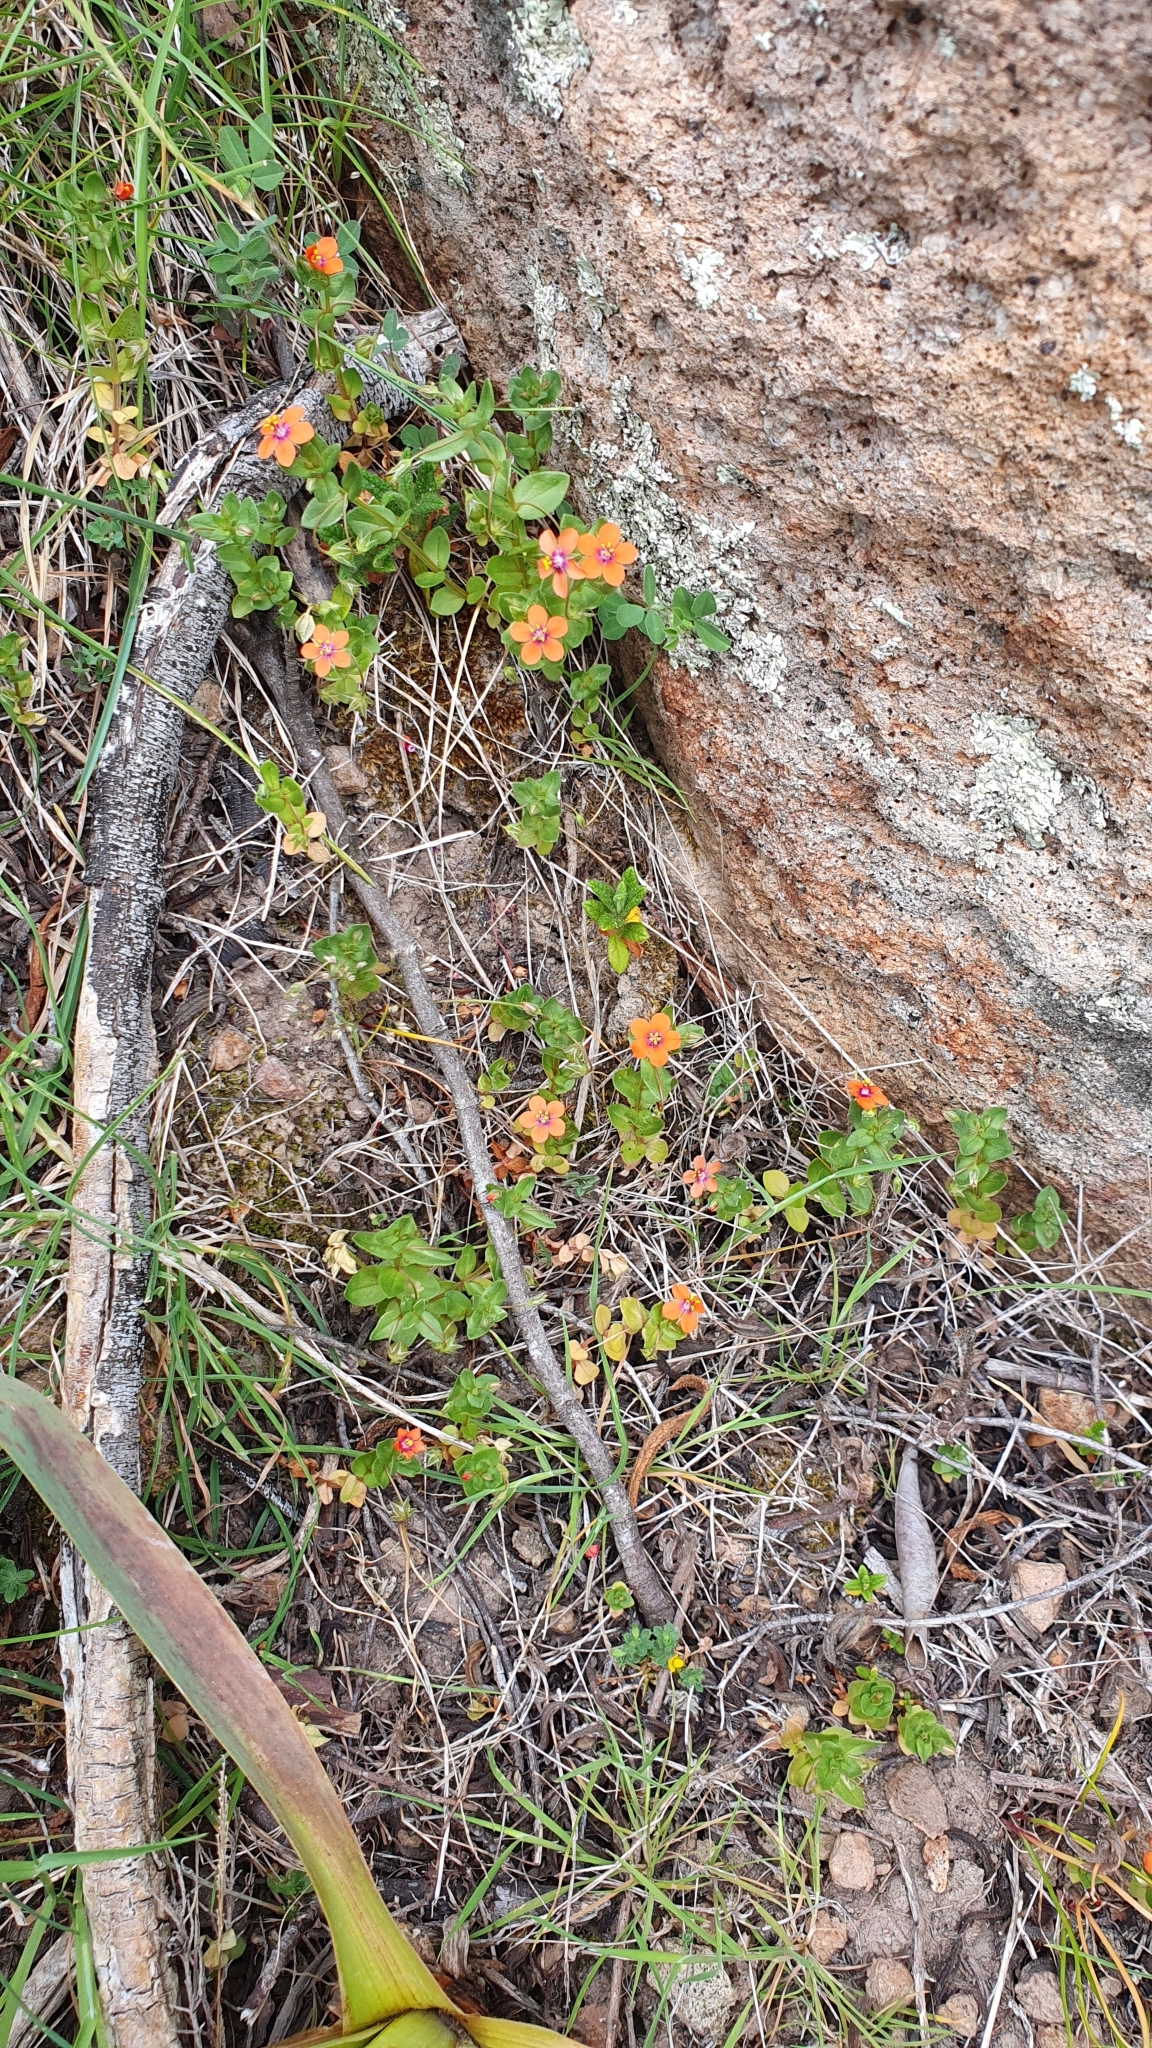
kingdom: Plantae
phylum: Tracheophyta
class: Magnoliopsida
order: Ericales
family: Primulaceae
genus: Lysimachia
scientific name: Lysimachia arvensis
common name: Scarlet pimpernel
